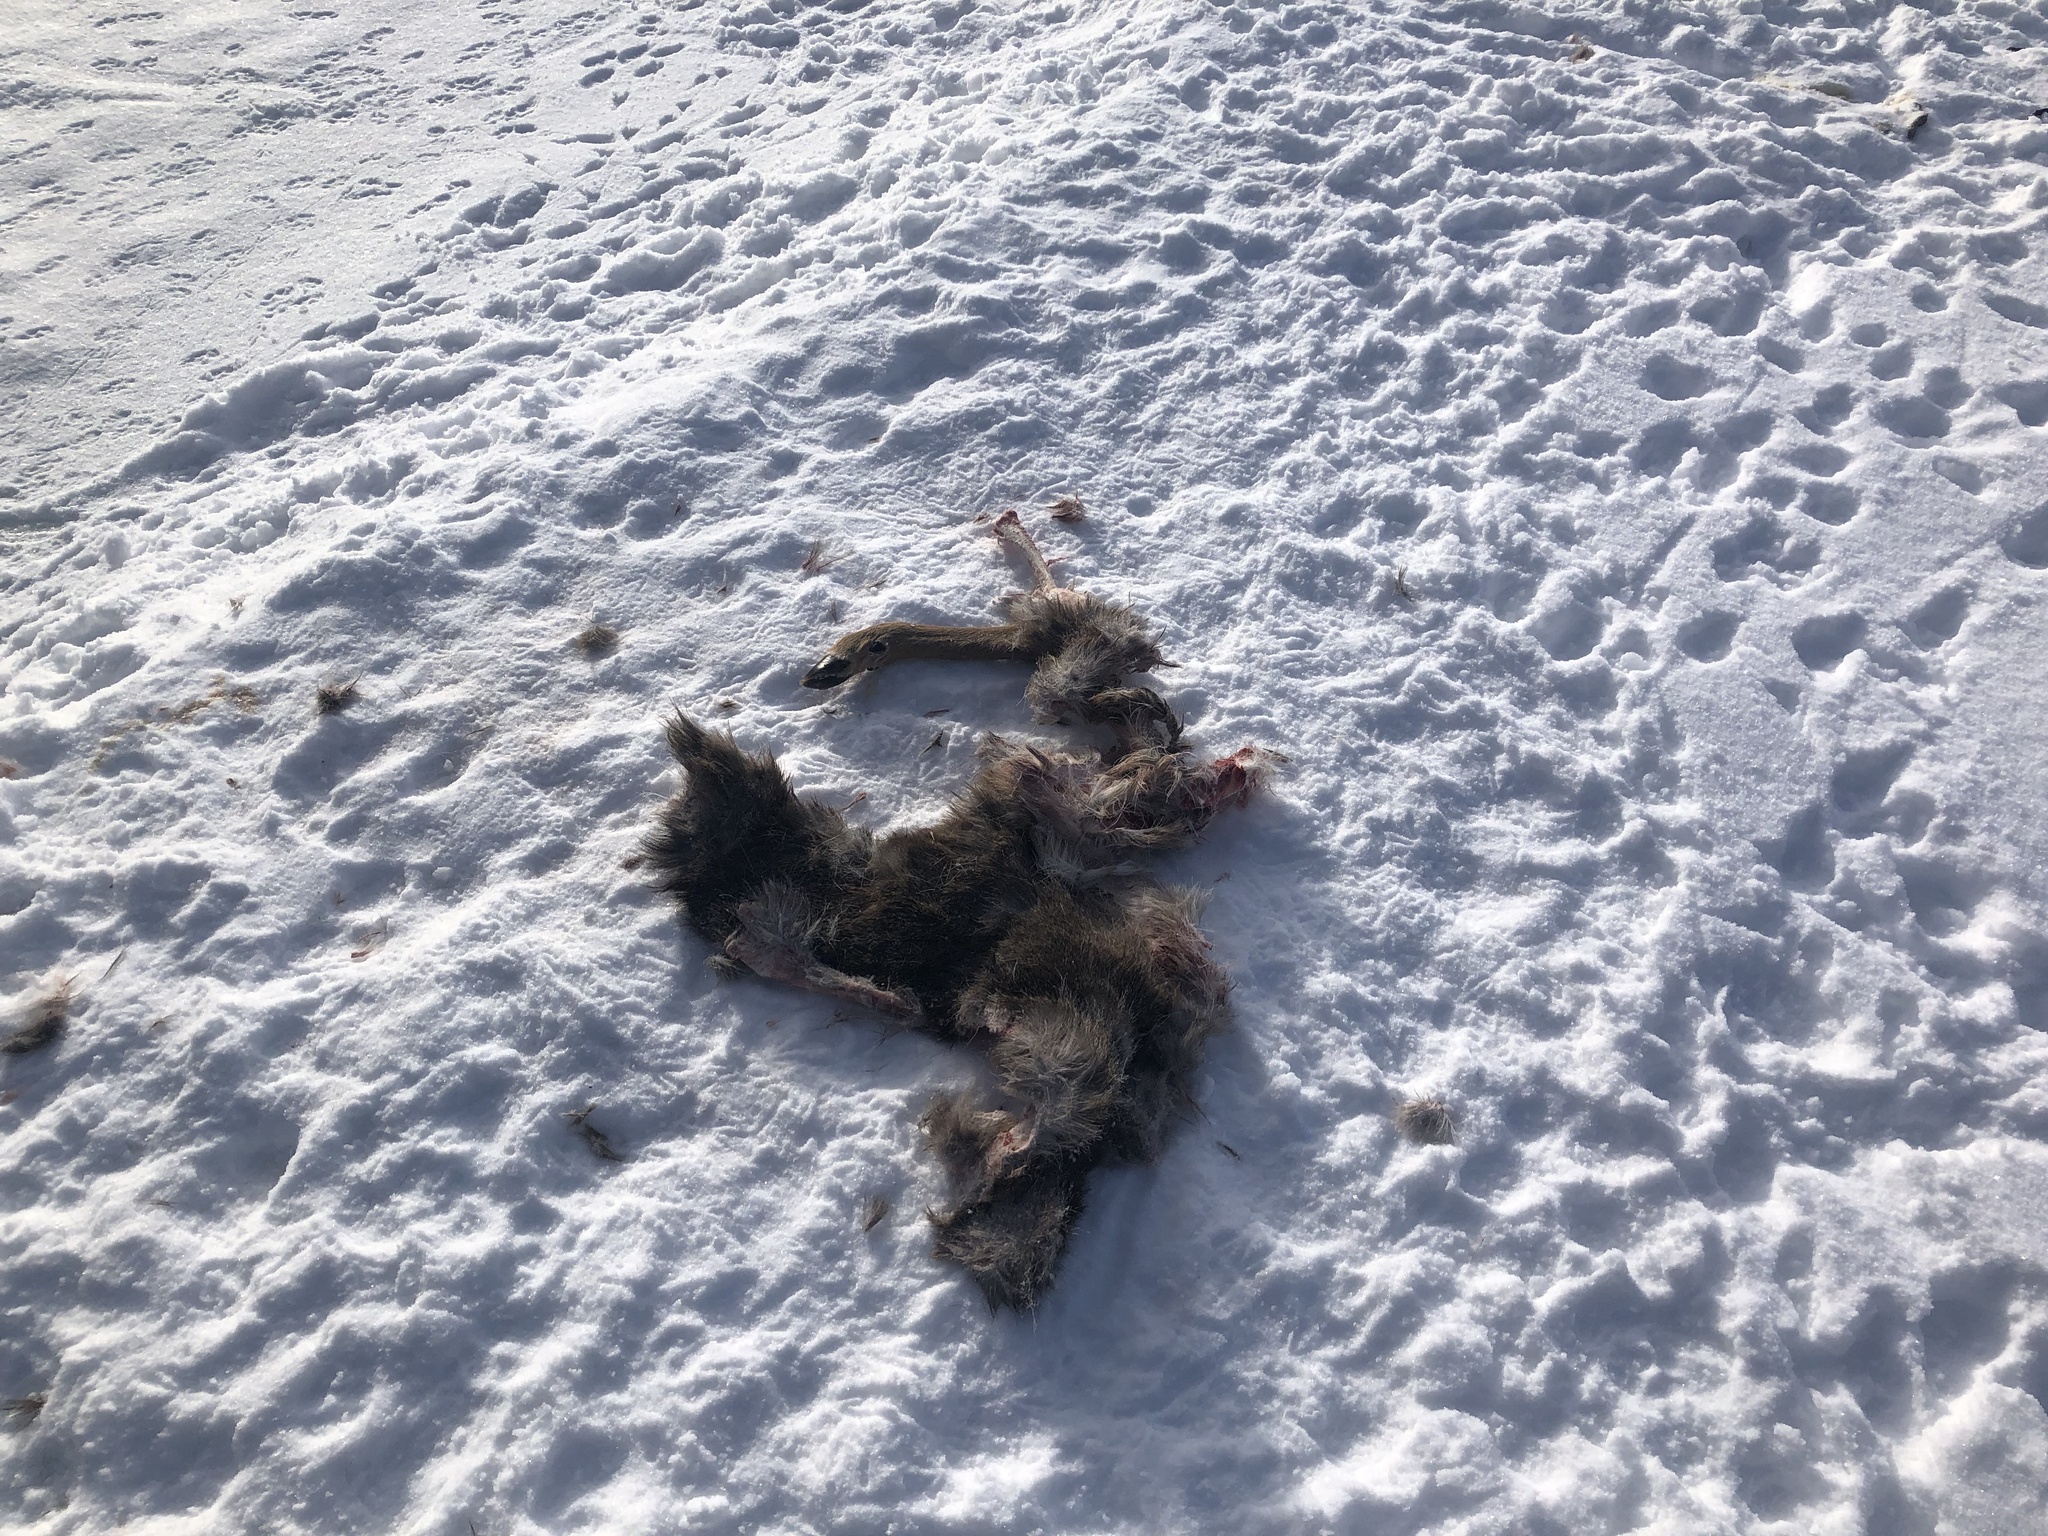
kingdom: Animalia
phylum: Chordata
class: Mammalia
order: Artiodactyla
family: Cervidae
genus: Odocoileus
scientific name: Odocoileus virginianus
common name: White-tailed deer
